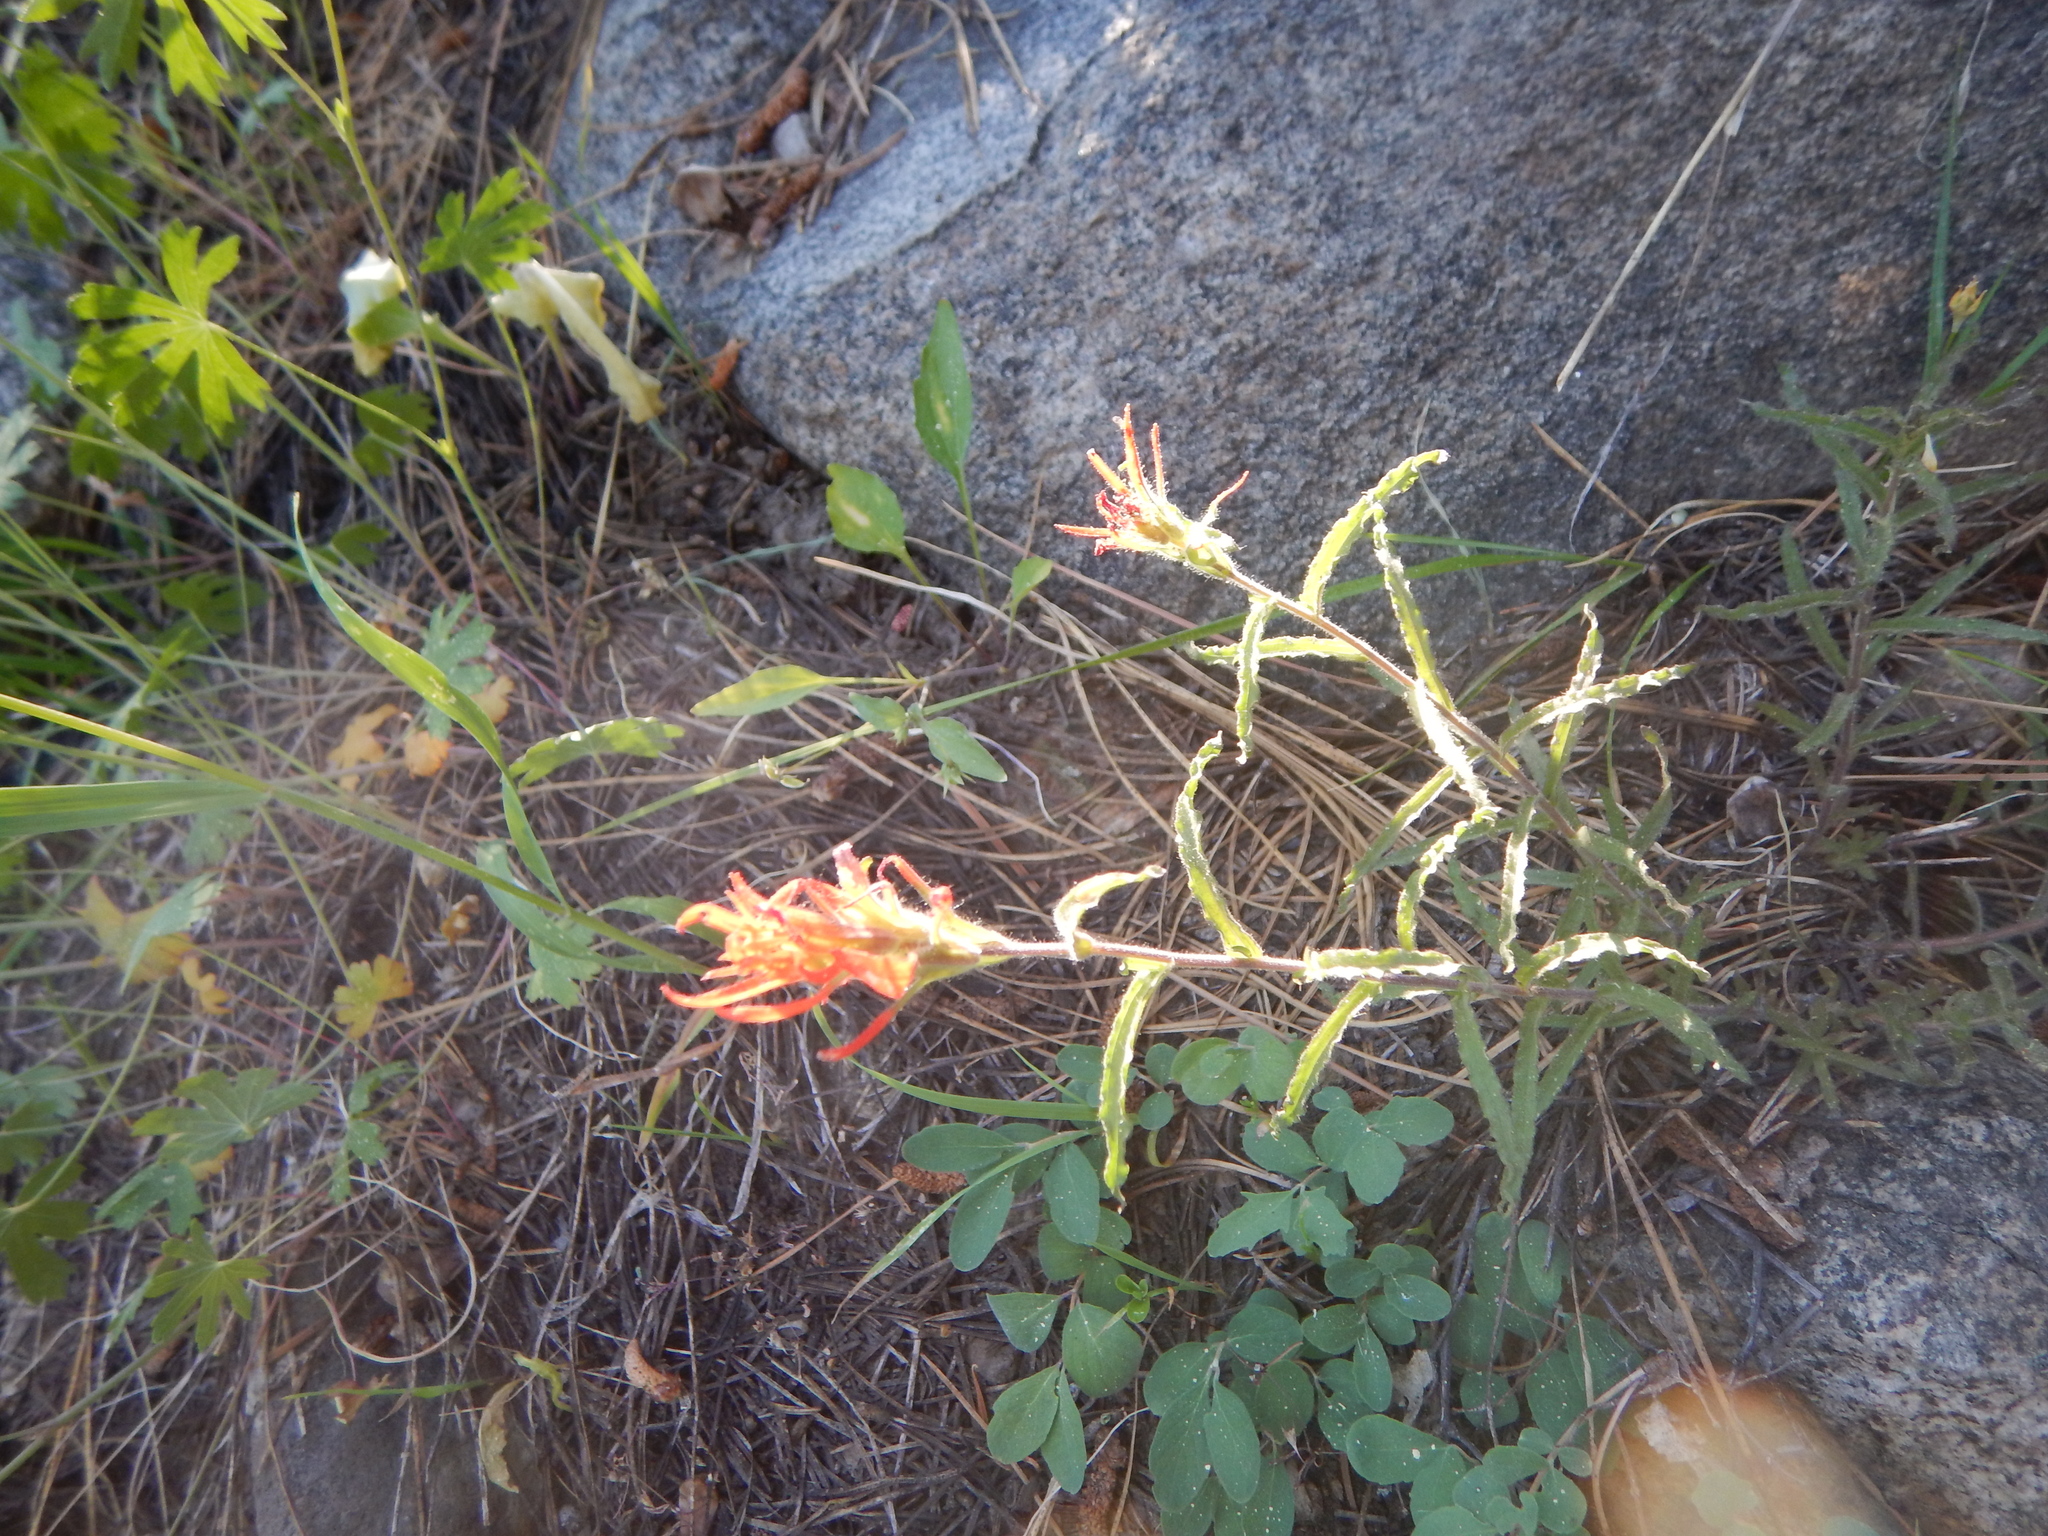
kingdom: Plantae
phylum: Tracheophyta
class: Magnoliopsida
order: Lamiales
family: Orobanchaceae
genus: Castilleja
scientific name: Castilleja applegatei
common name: Wavy-leaf paintbrush
